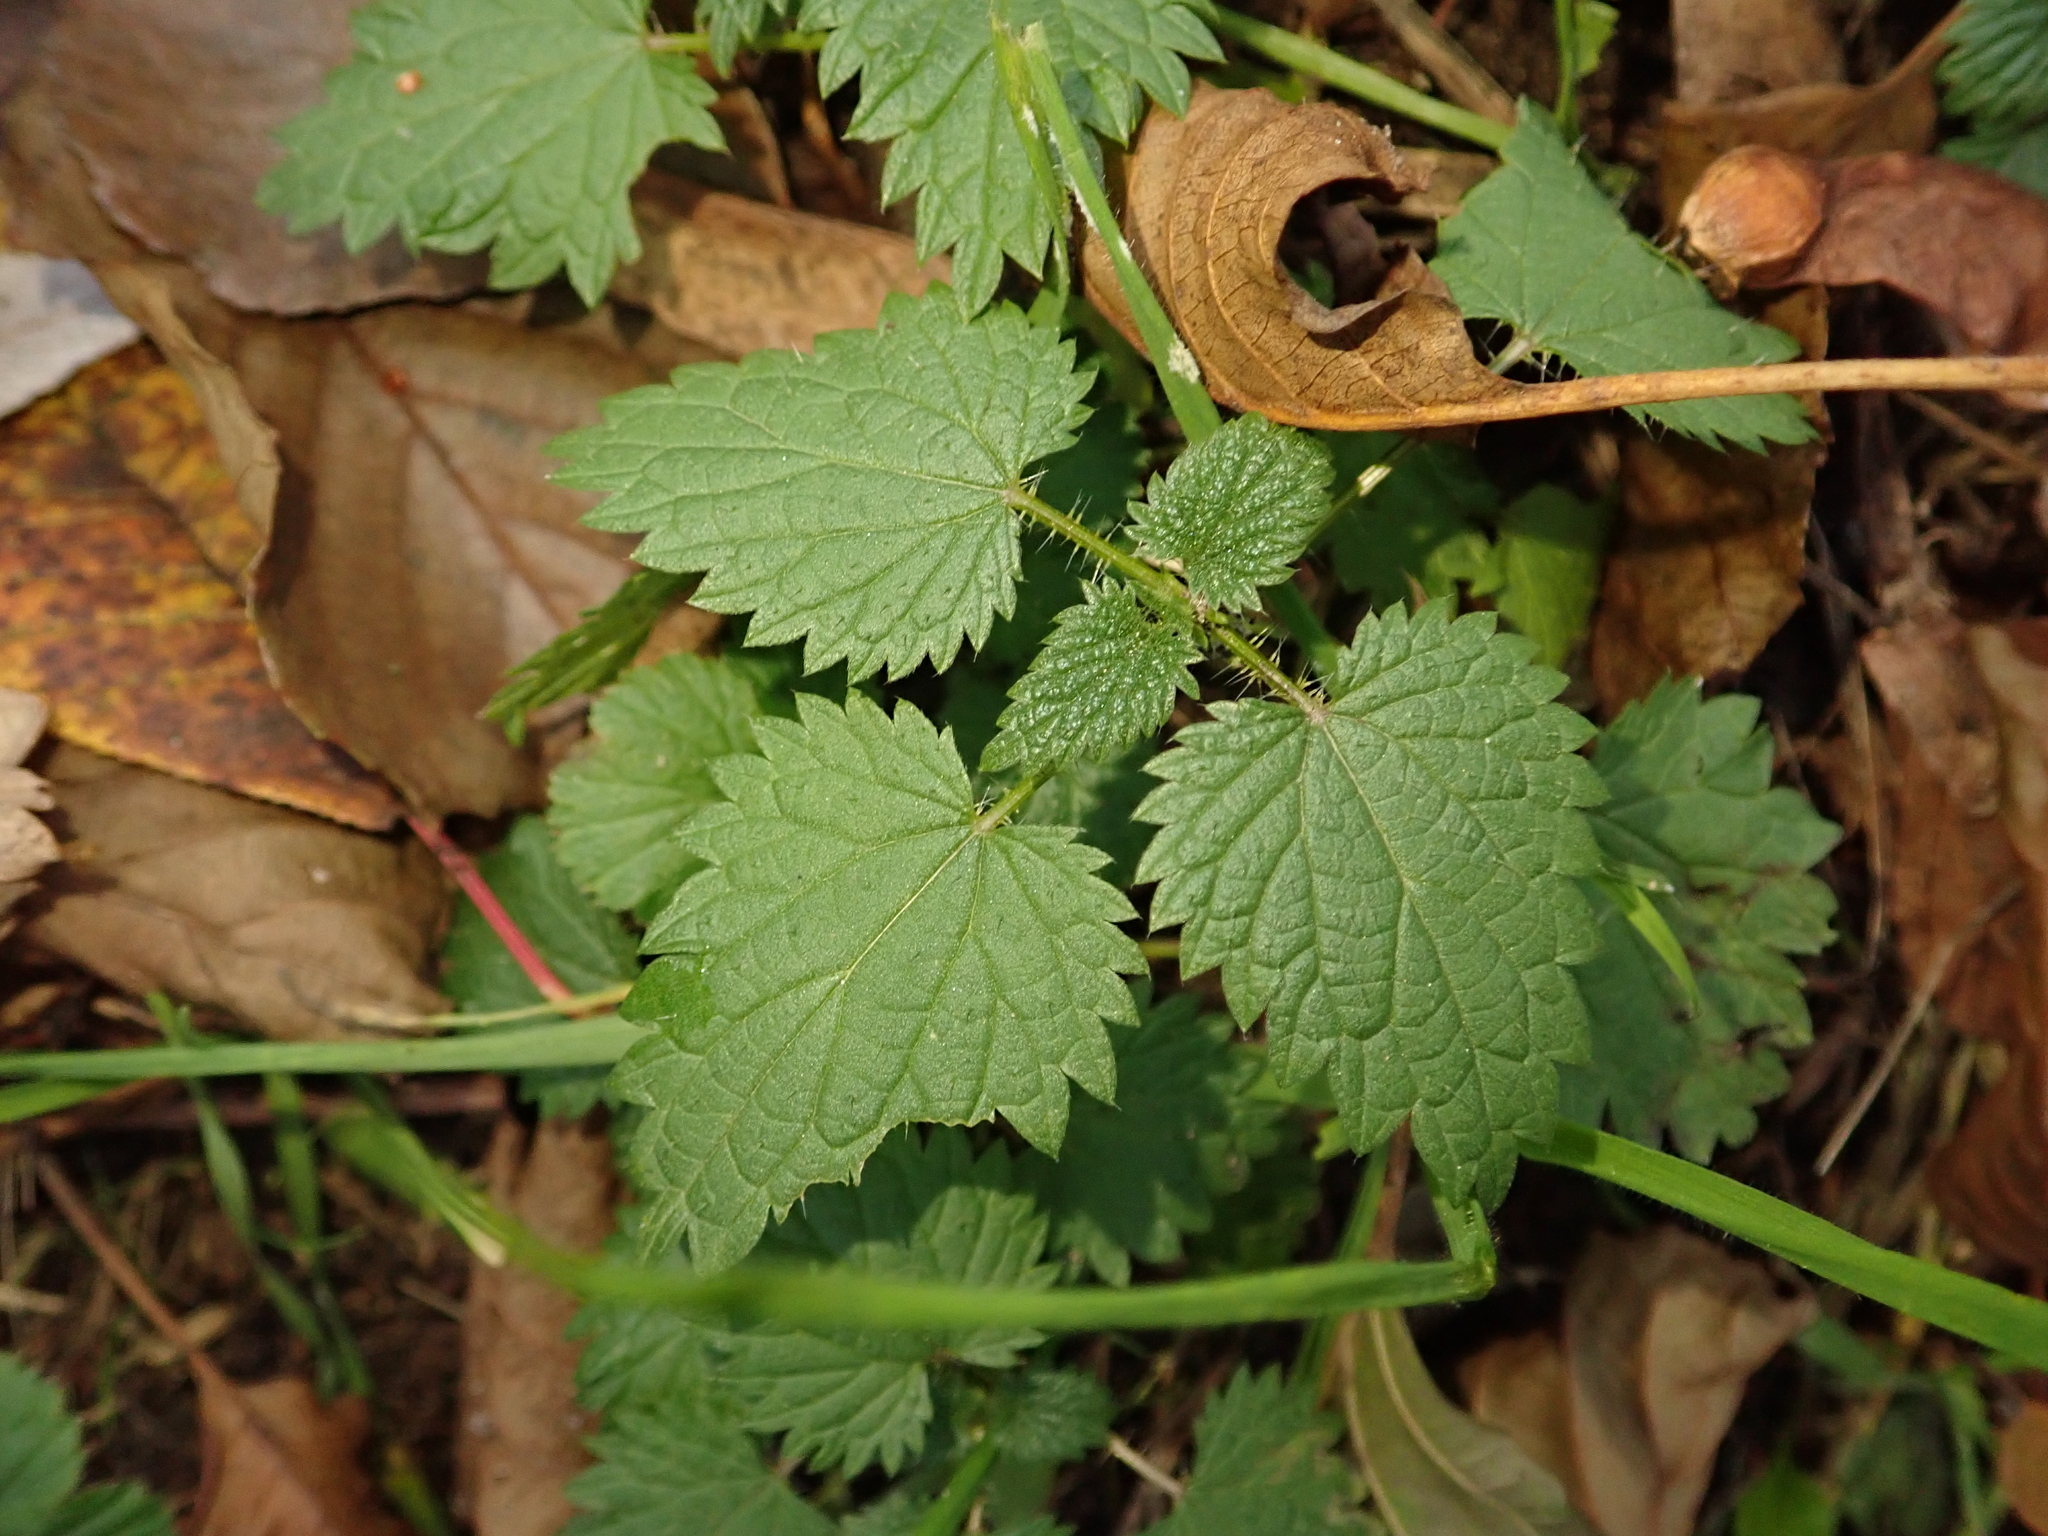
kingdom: Plantae
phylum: Tracheophyta
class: Magnoliopsida
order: Rosales
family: Urticaceae
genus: Urtica
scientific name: Urtica dioica
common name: Common nettle
